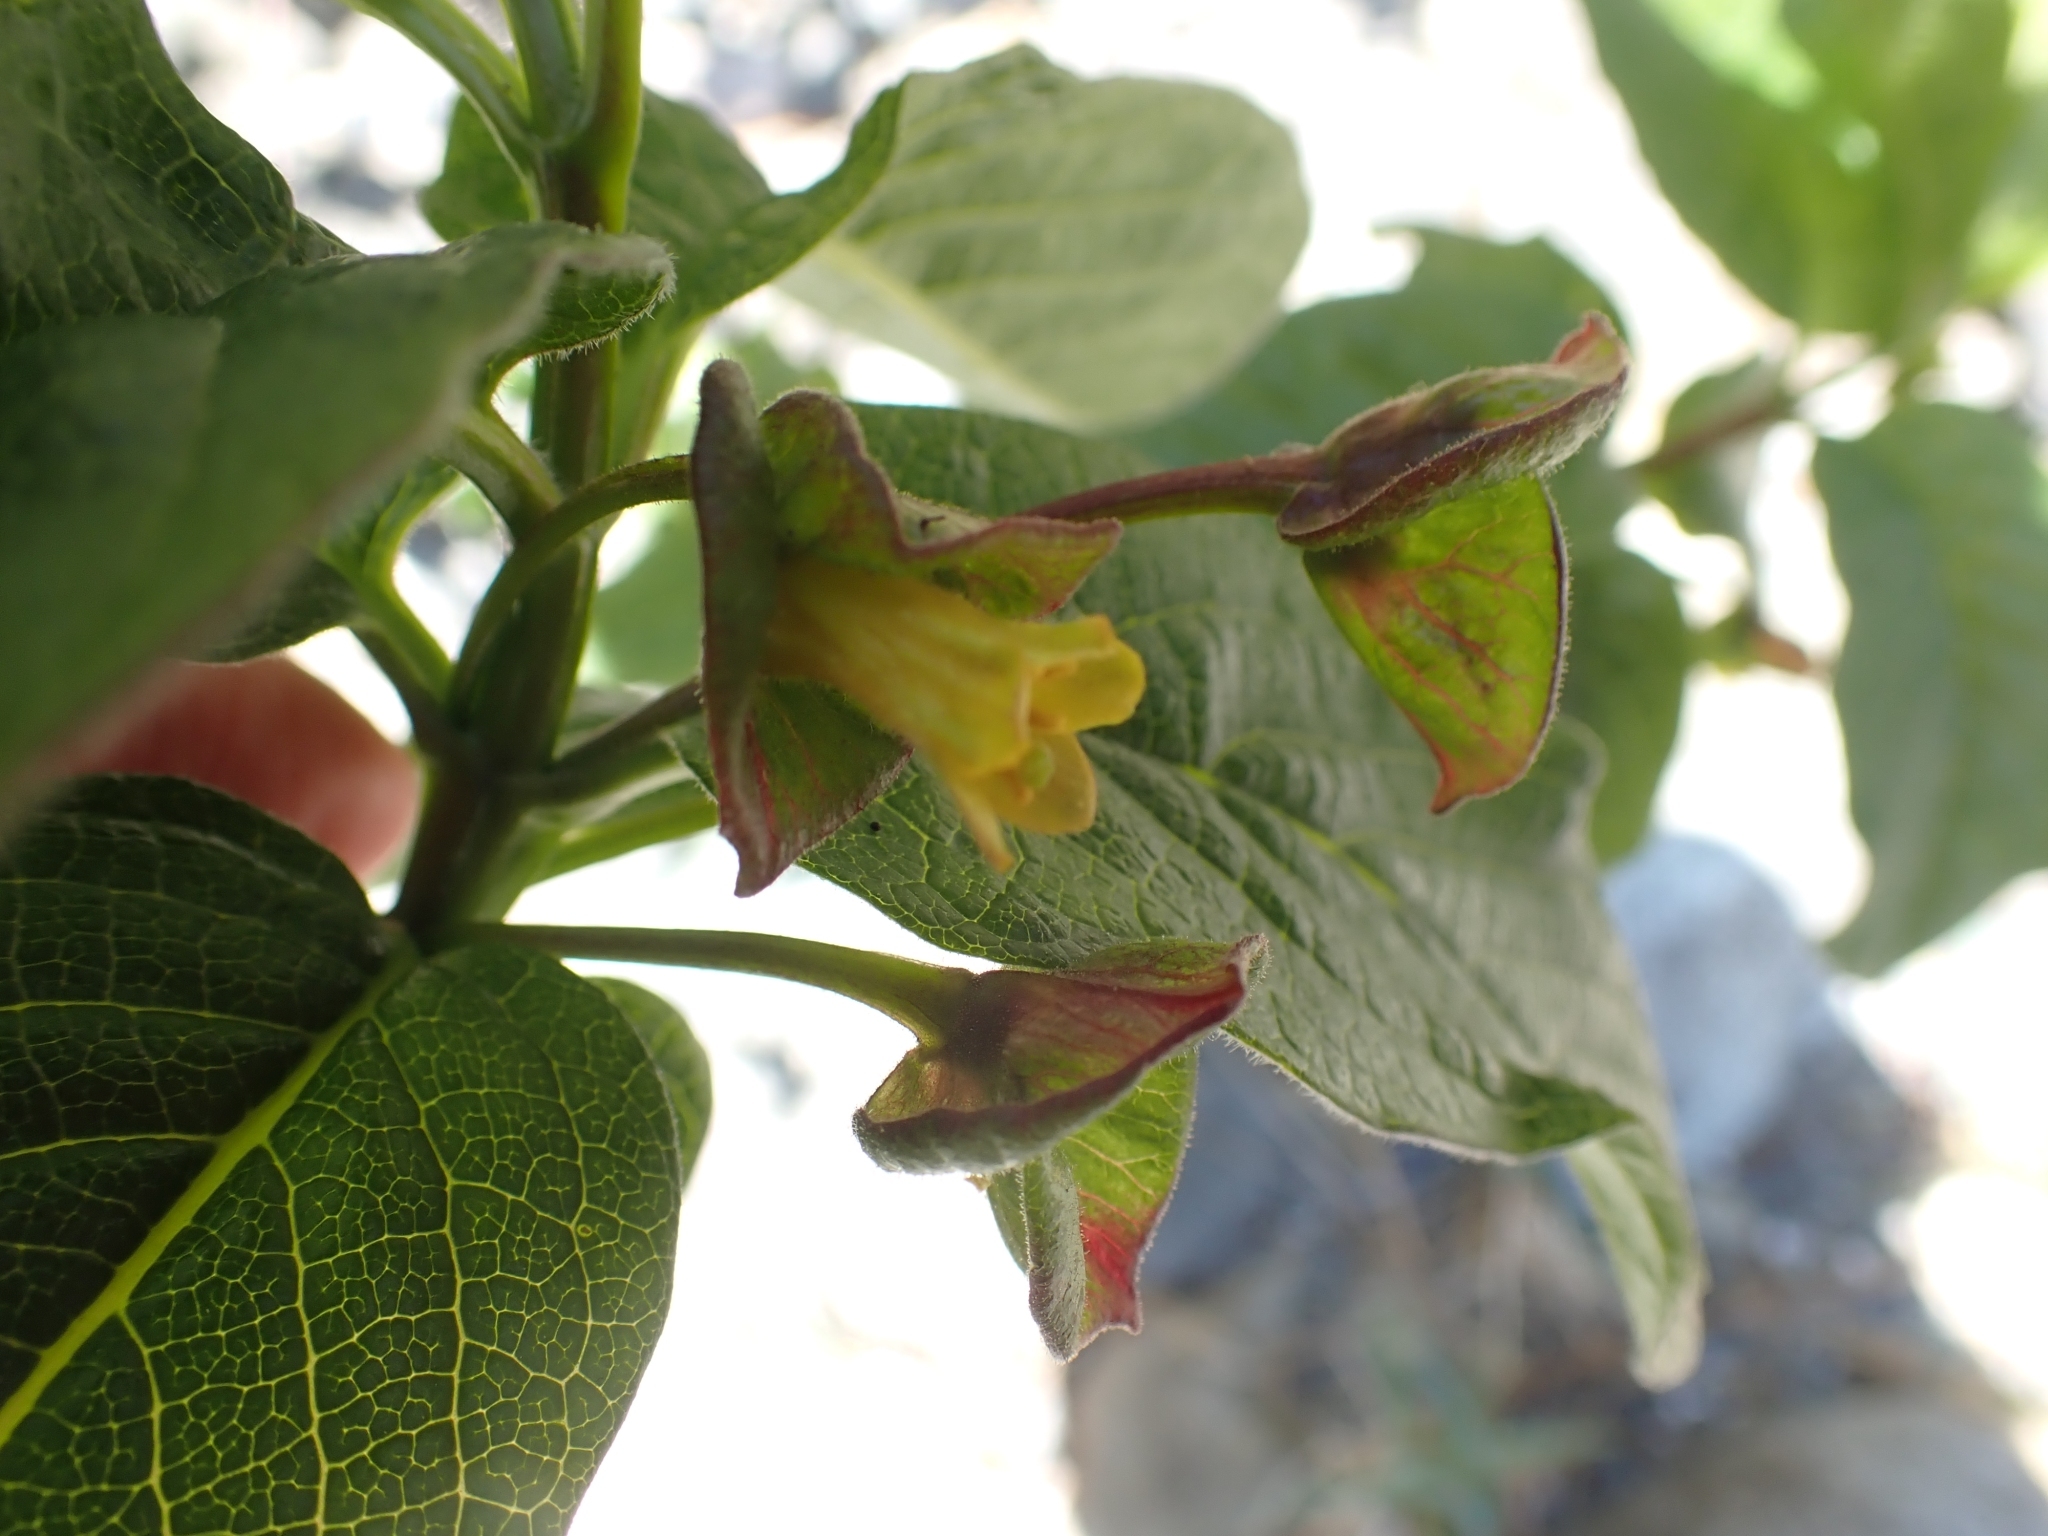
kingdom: Plantae
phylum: Tracheophyta
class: Magnoliopsida
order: Dipsacales
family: Caprifoliaceae
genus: Lonicera
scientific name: Lonicera involucrata
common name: Californian honeysuckle
